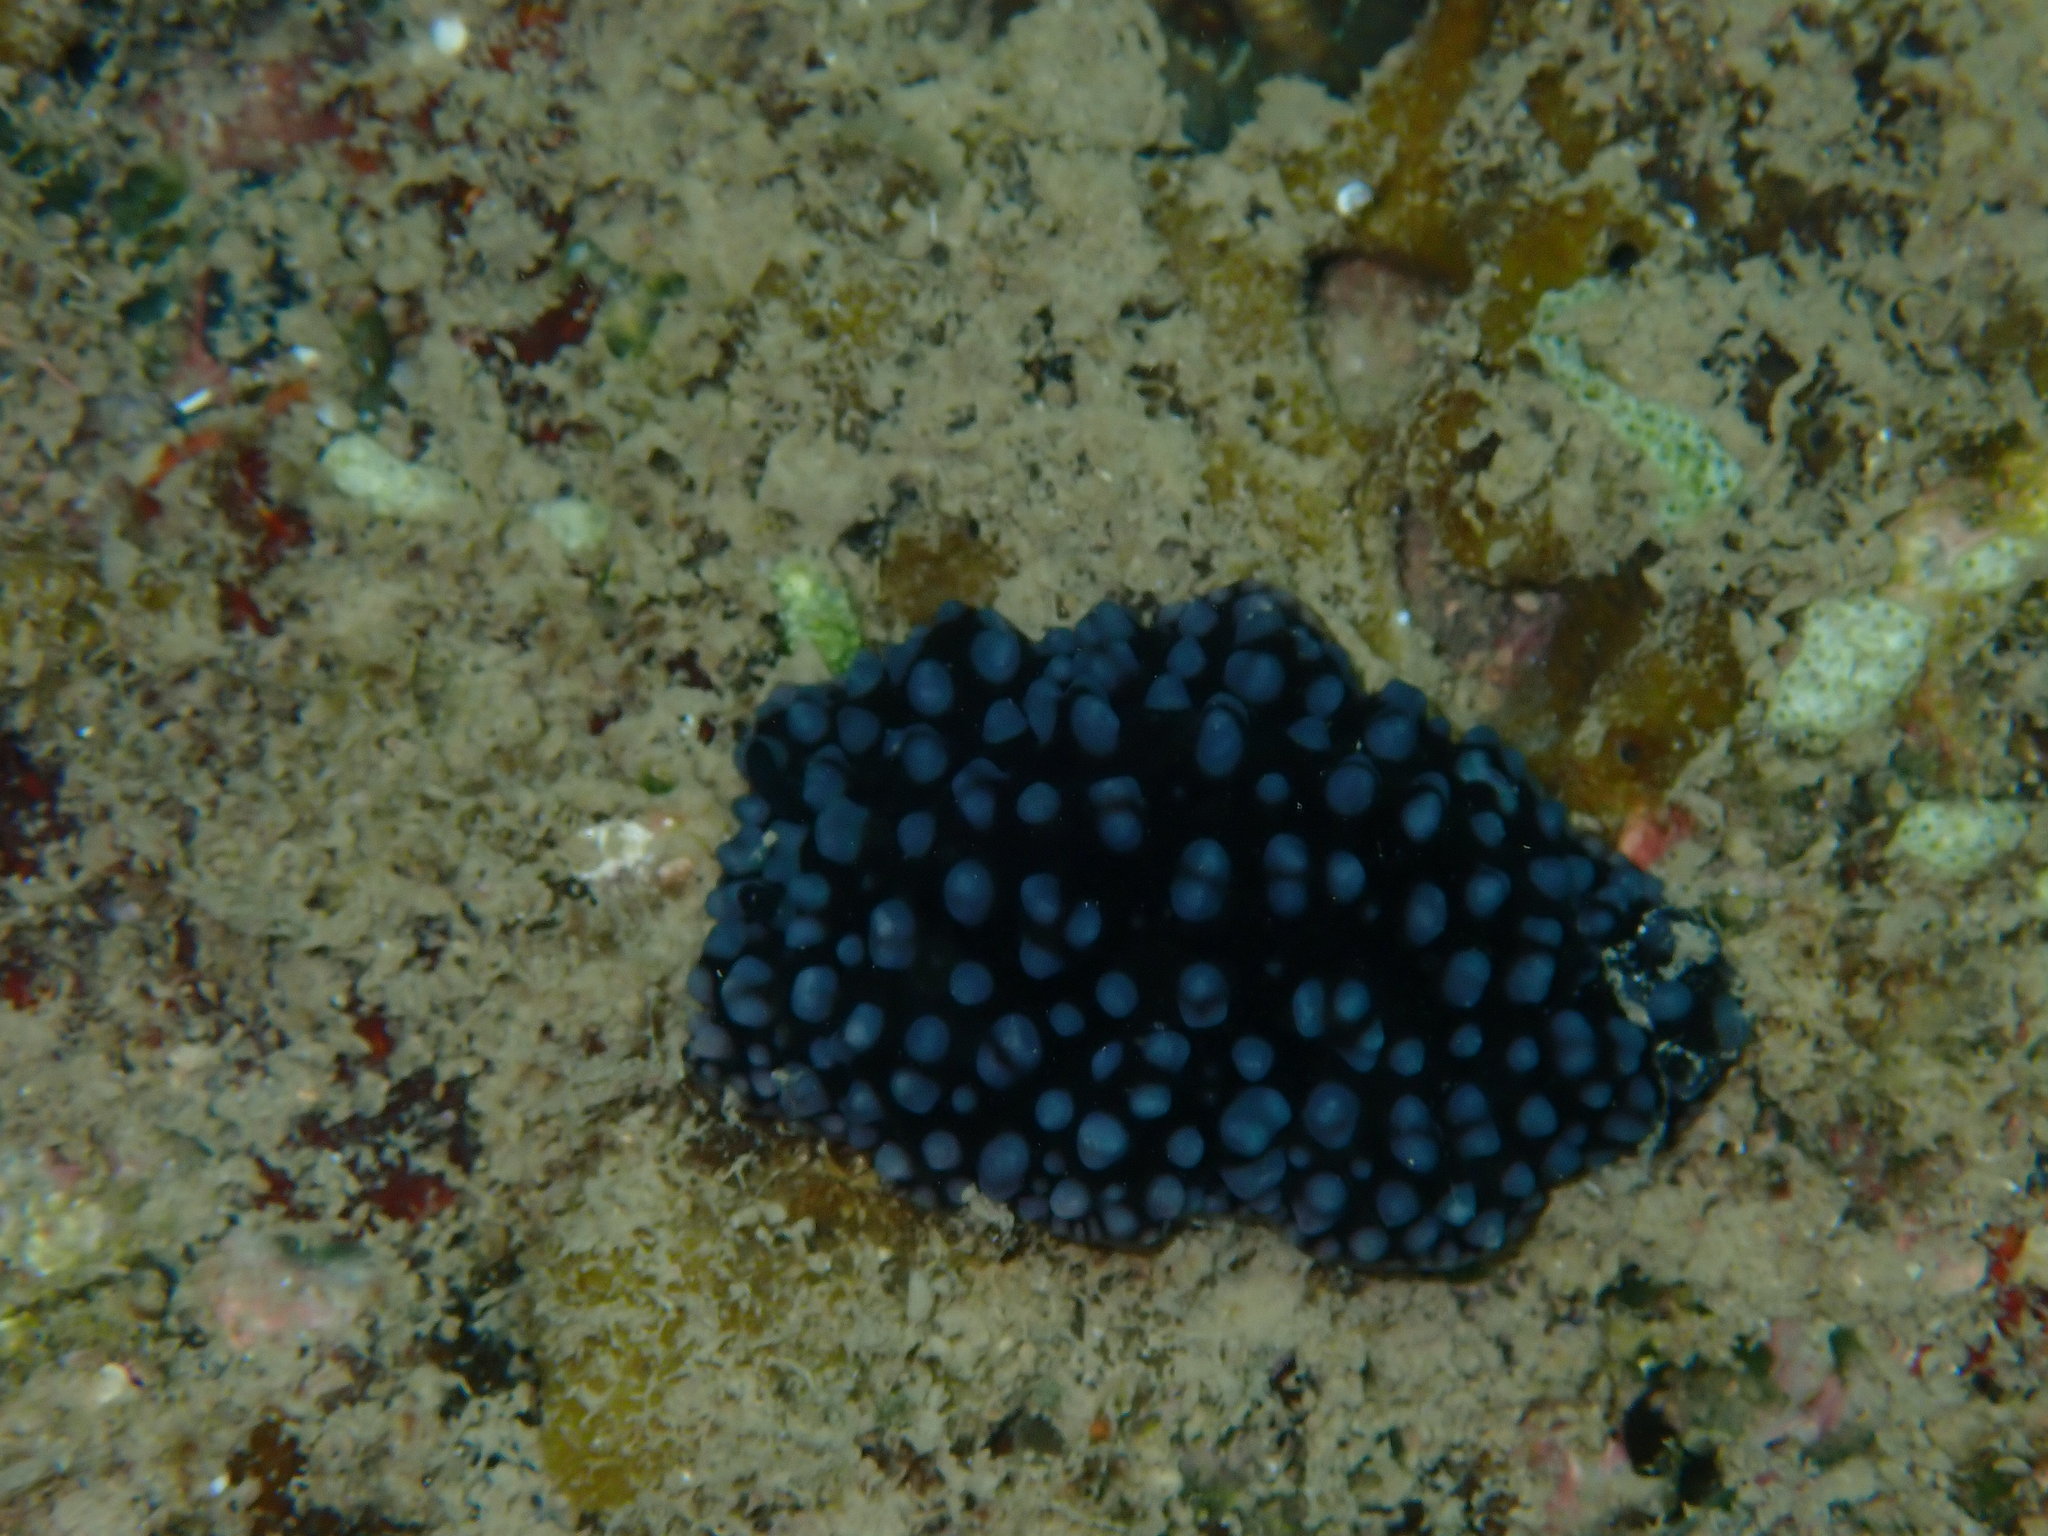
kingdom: Animalia
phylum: Mollusca
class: Gastropoda
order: Nudibranchia
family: Phyllidiidae
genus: Phyllidiella
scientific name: Phyllidiella nigra
